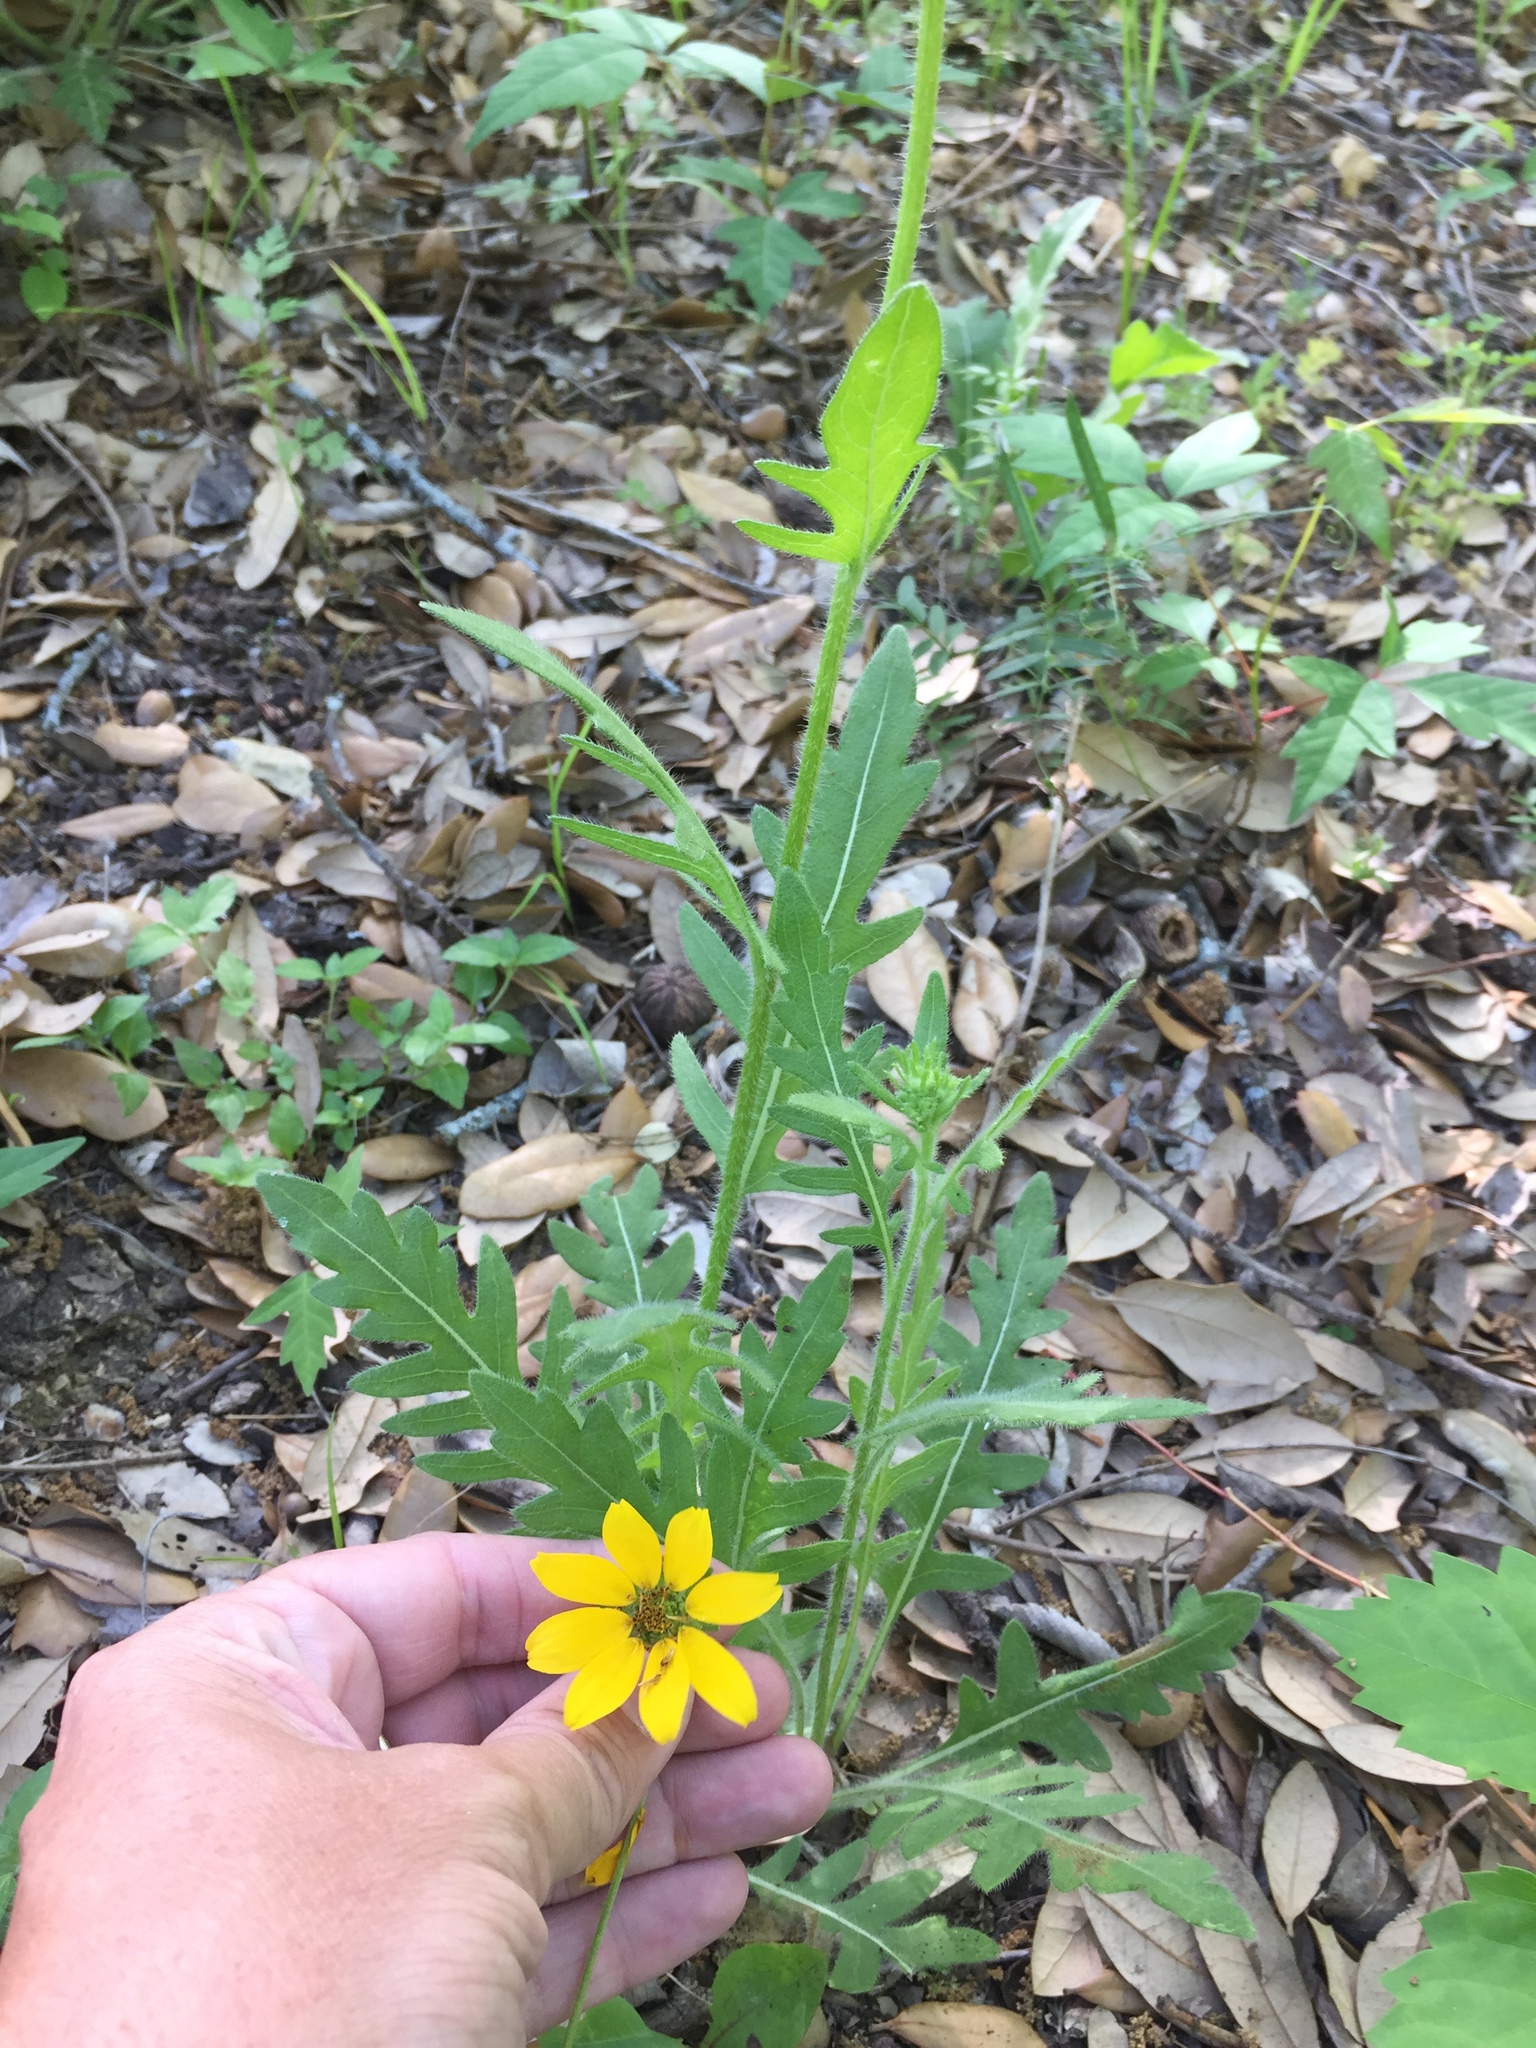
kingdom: Plantae
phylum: Tracheophyta
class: Magnoliopsida
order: Asterales
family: Asteraceae
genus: Engelmannia
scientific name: Engelmannia peristenia
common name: Engelmann's daisy
